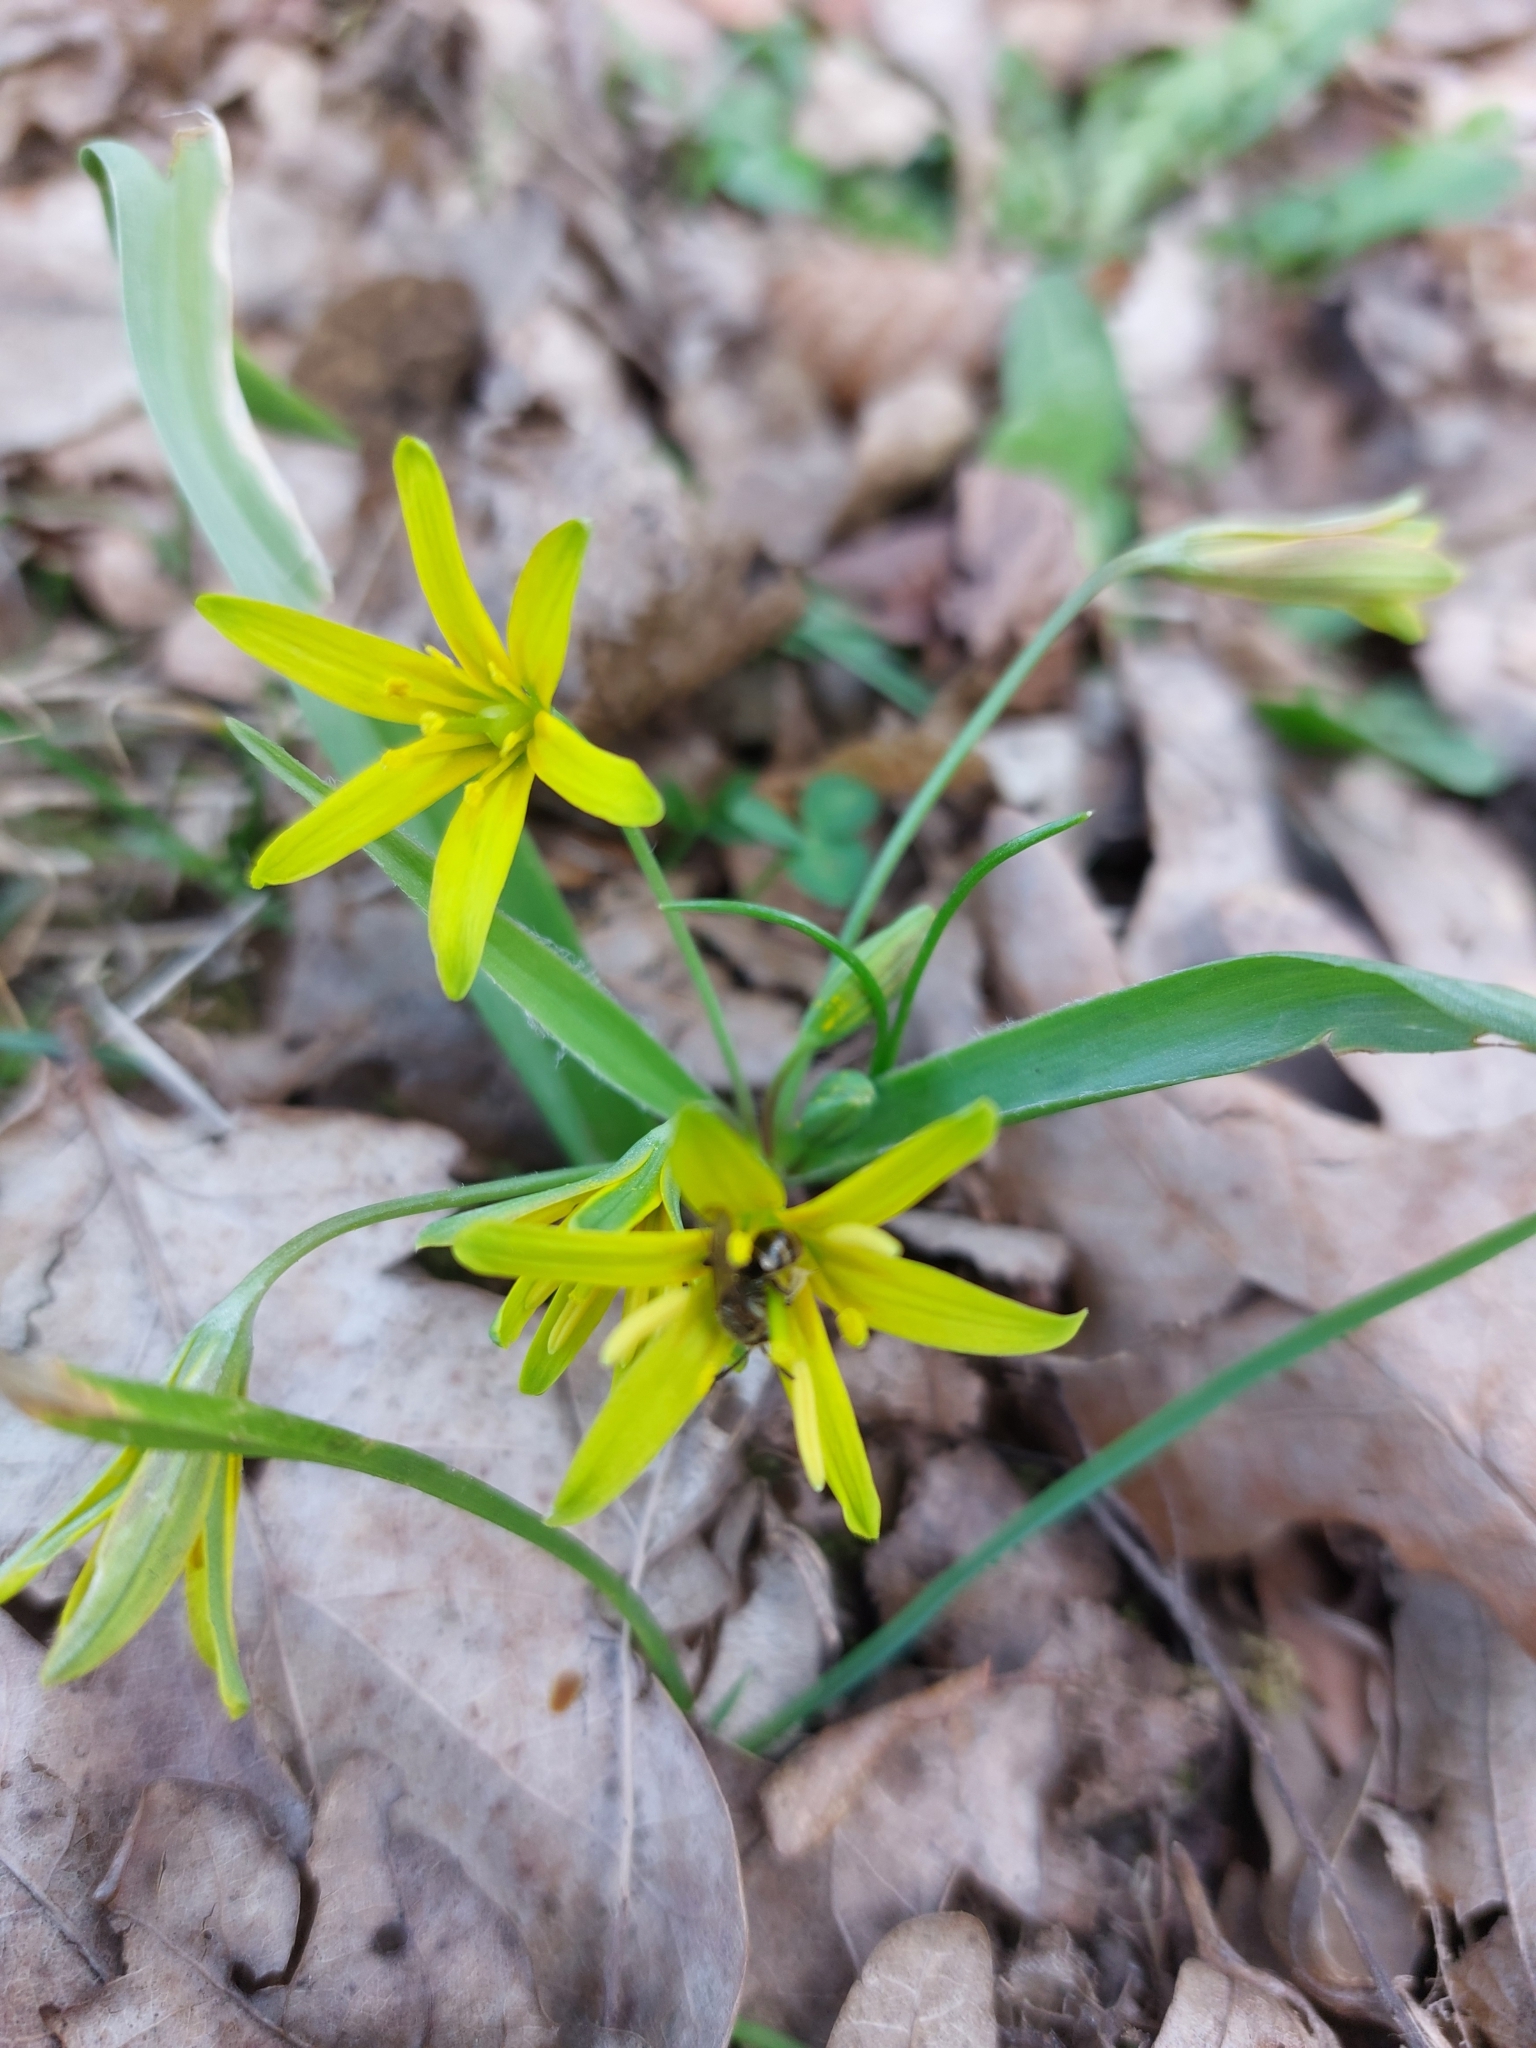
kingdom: Plantae
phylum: Tracheophyta
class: Liliopsida
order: Liliales
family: Liliaceae
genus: Gagea
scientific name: Gagea lutea
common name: Yellow star-of-bethlehem
